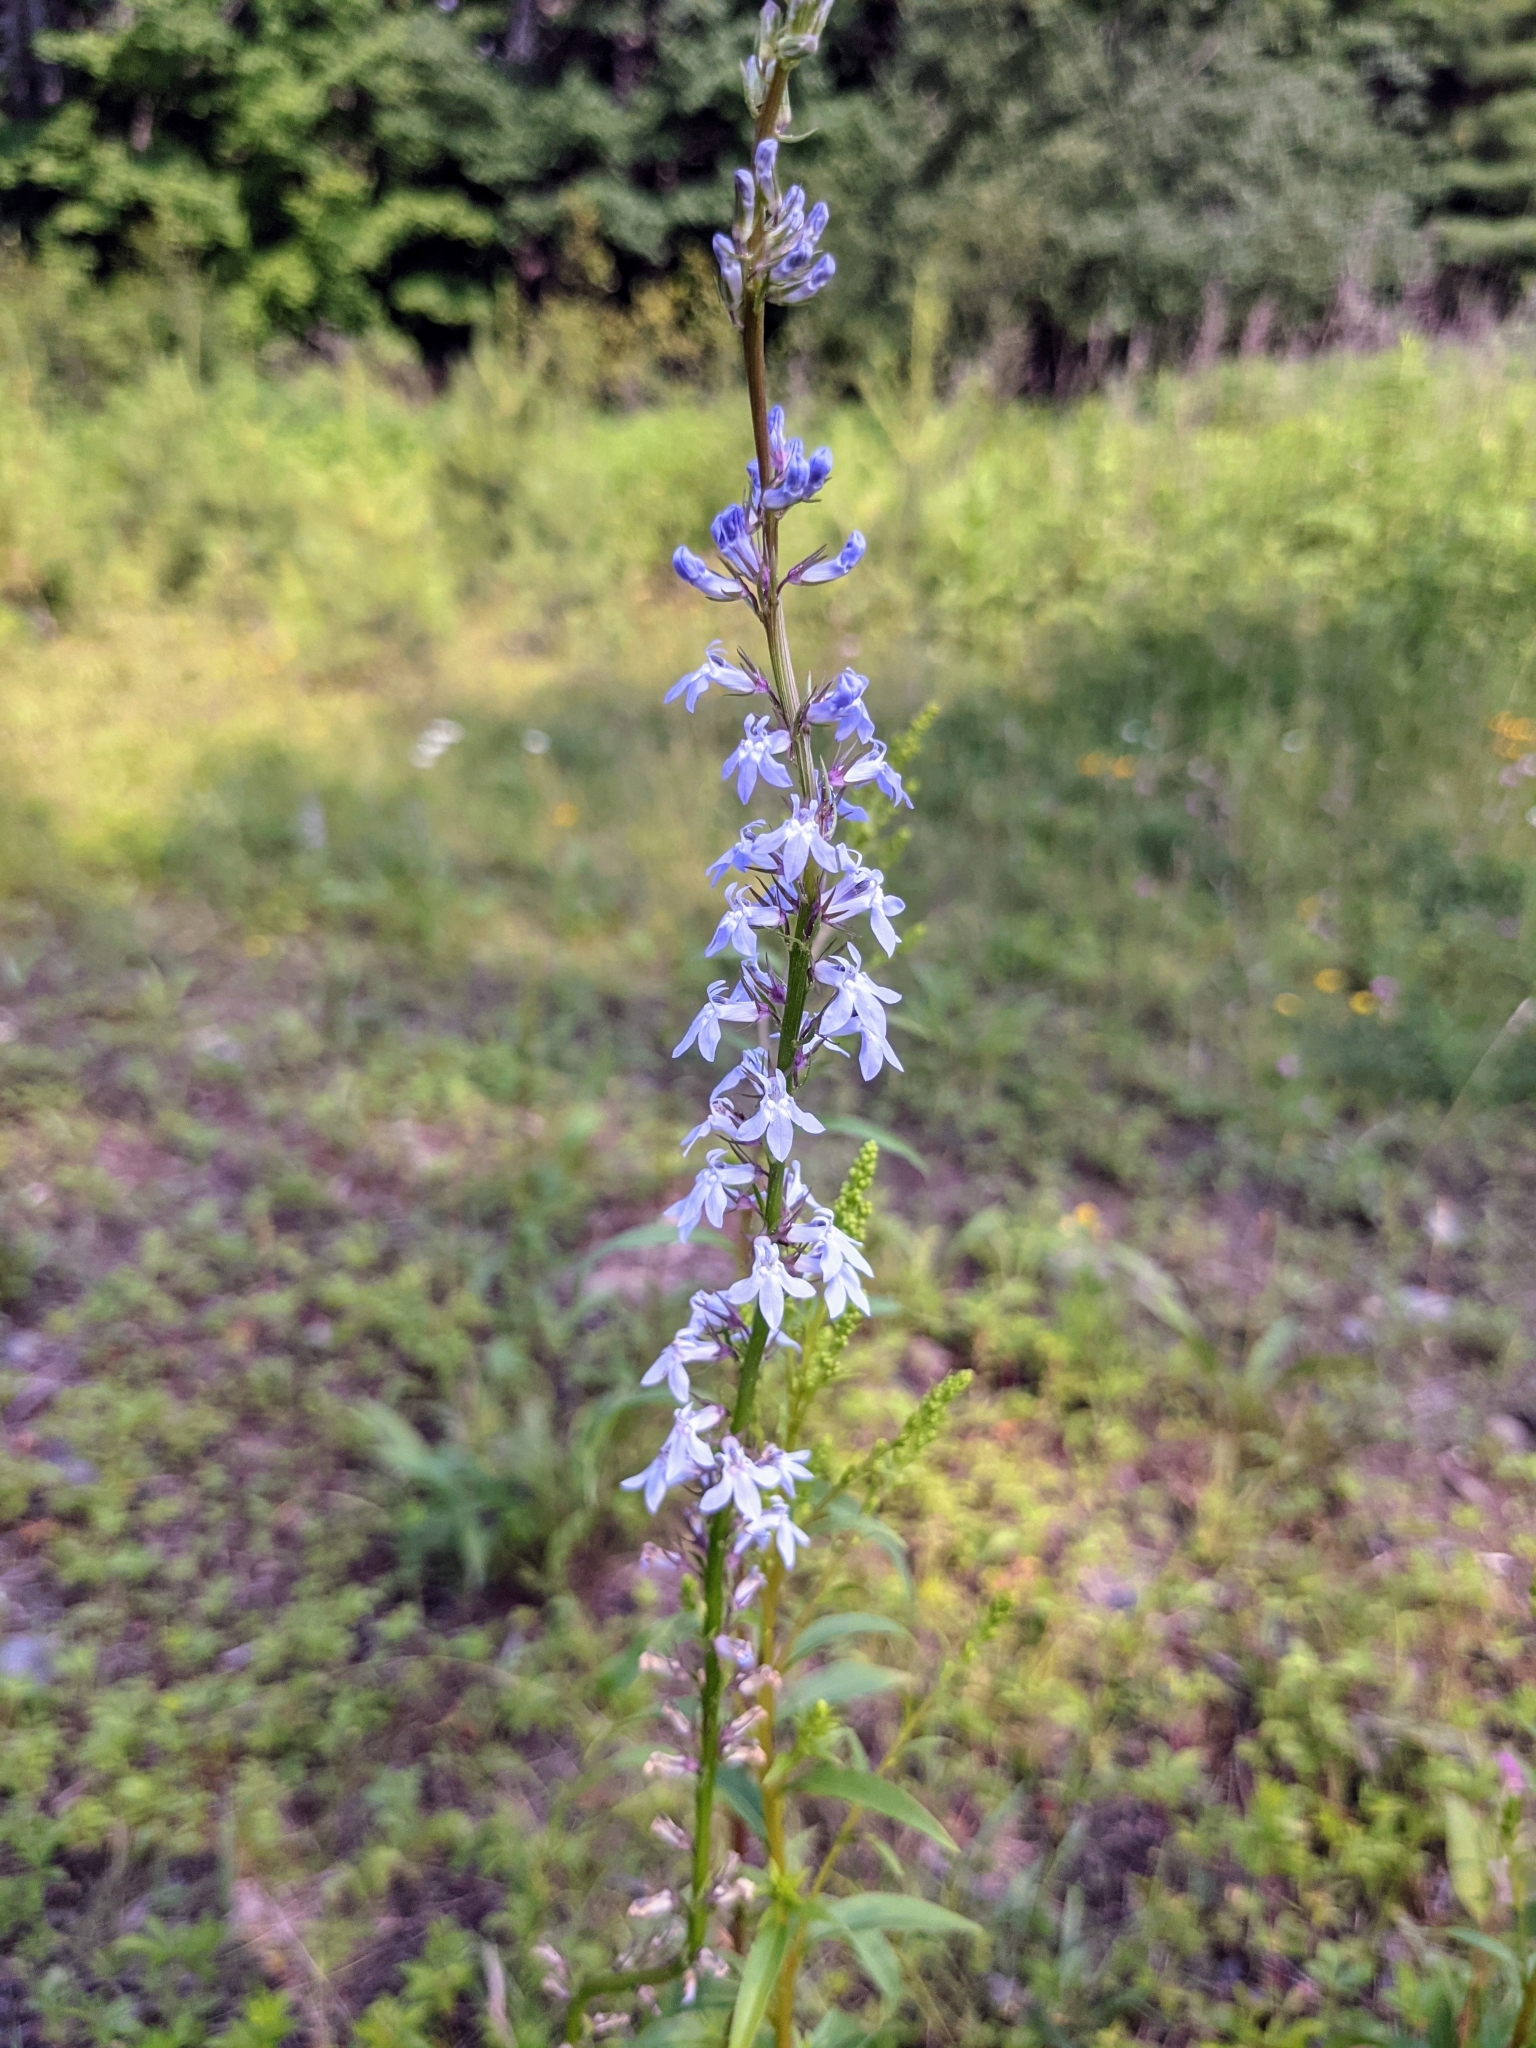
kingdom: Plantae
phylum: Tracheophyta
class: Magnoliopsida
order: Asterales
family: Campanulaceae
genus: Lobelia
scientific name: Lobelia spicata
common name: Pale-spike lobelia
